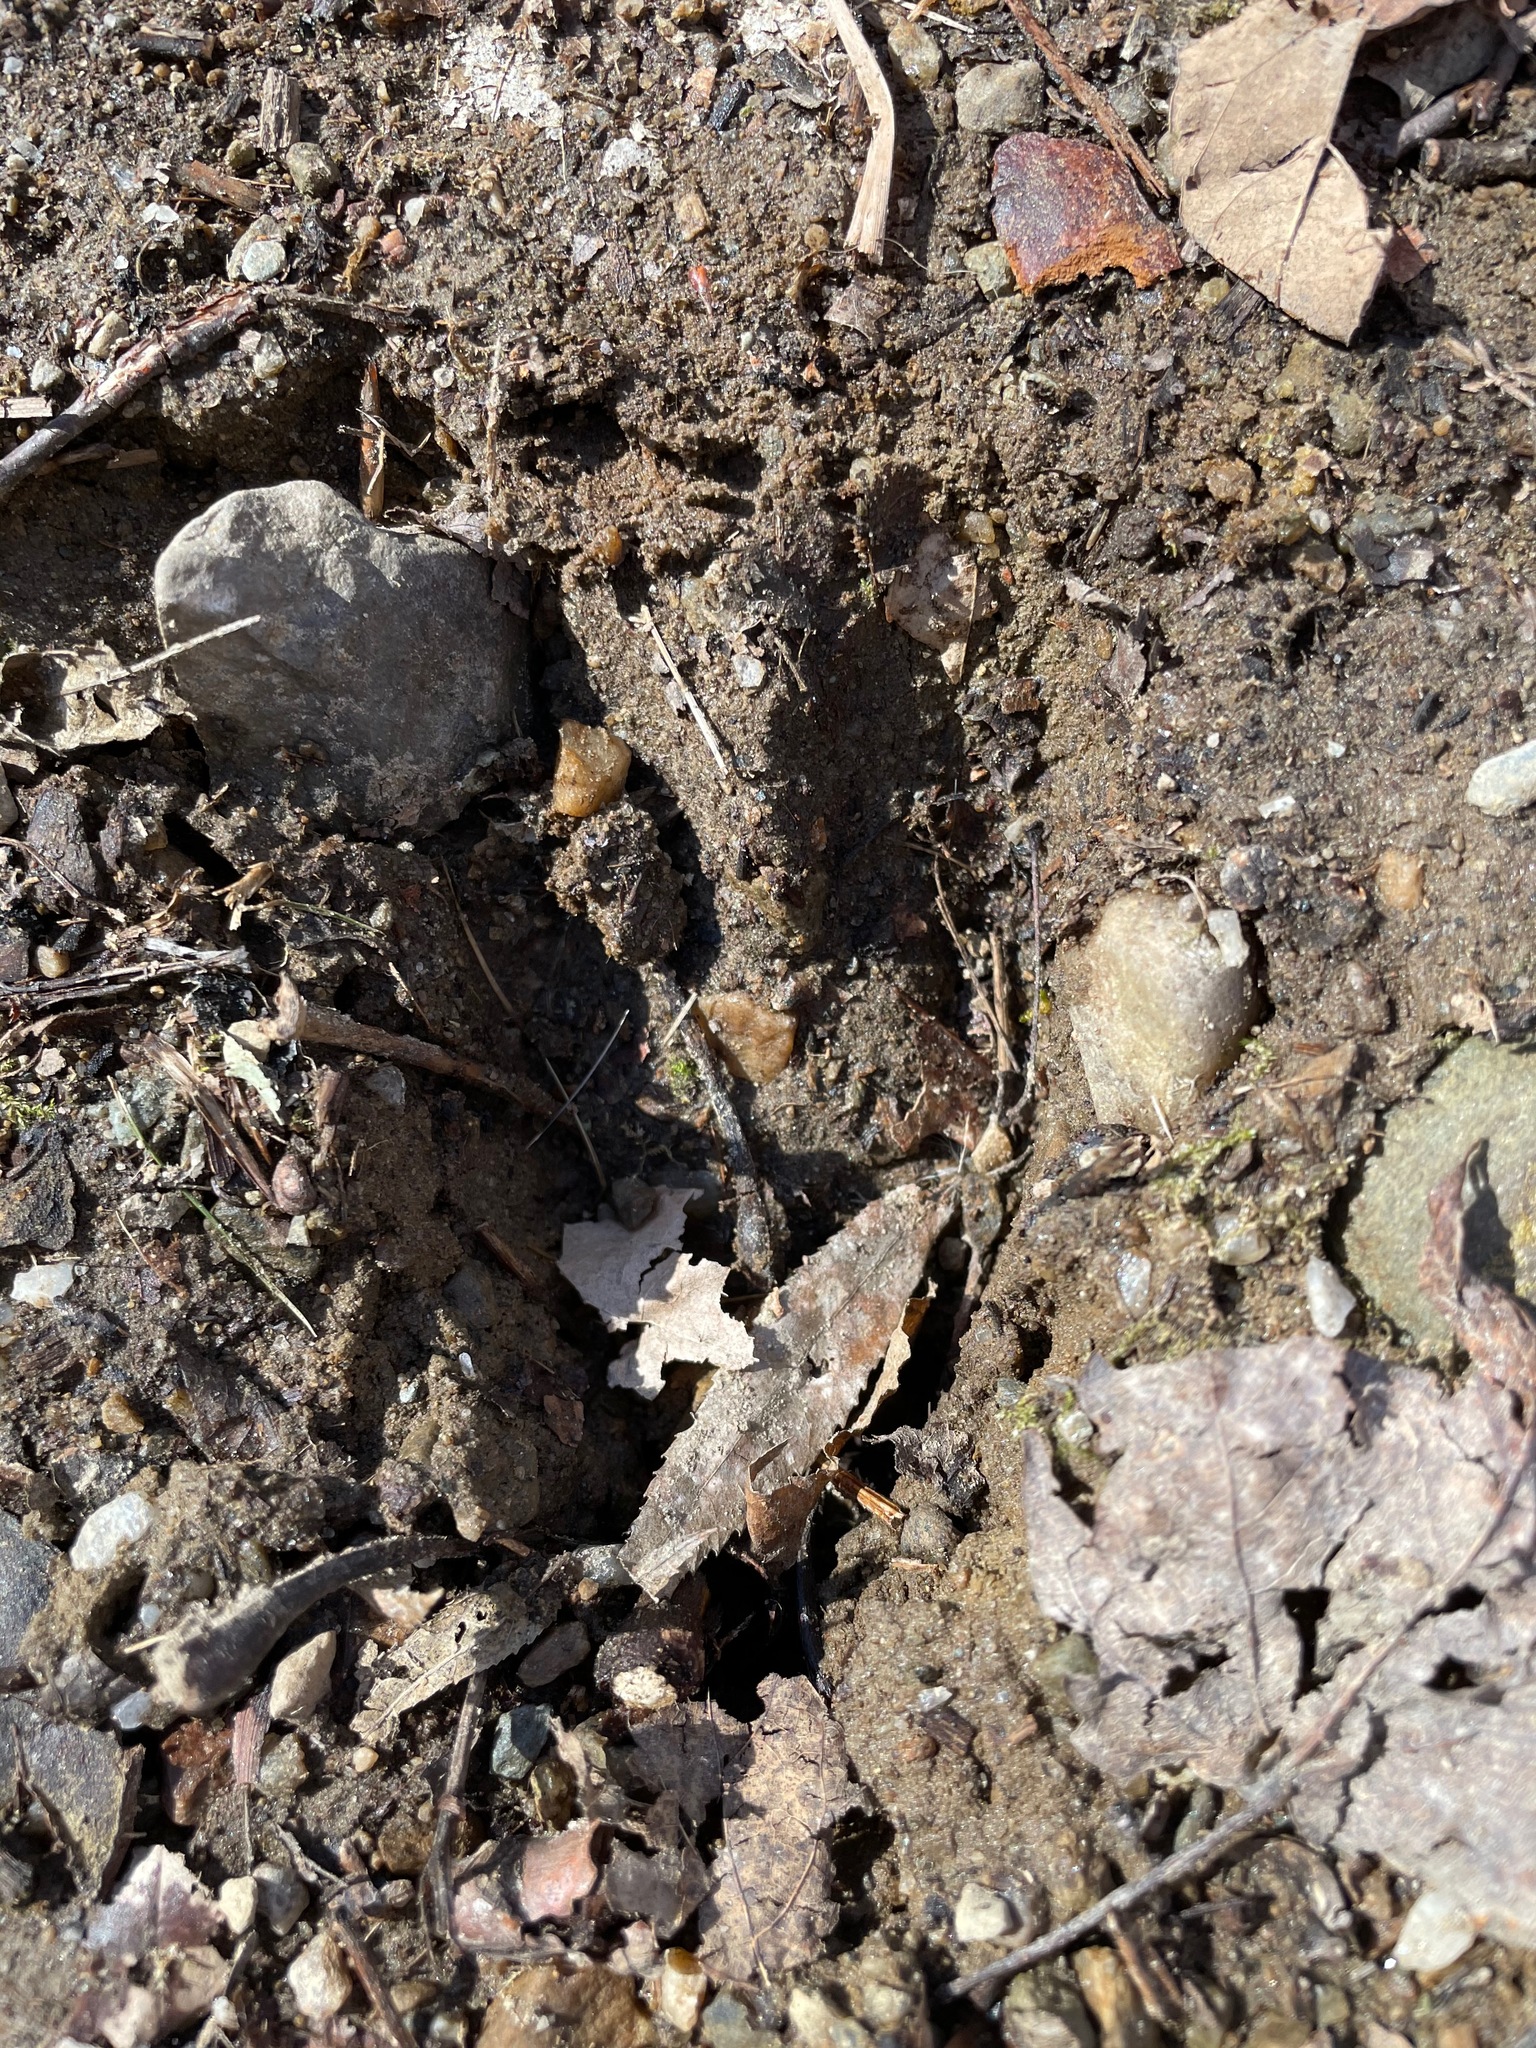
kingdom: Animalia
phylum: Chordata
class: Mammalia
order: Artiodactyla
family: Cervidae
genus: Odocoileus
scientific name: Odocoileus virginianus
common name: White-tailed deer
